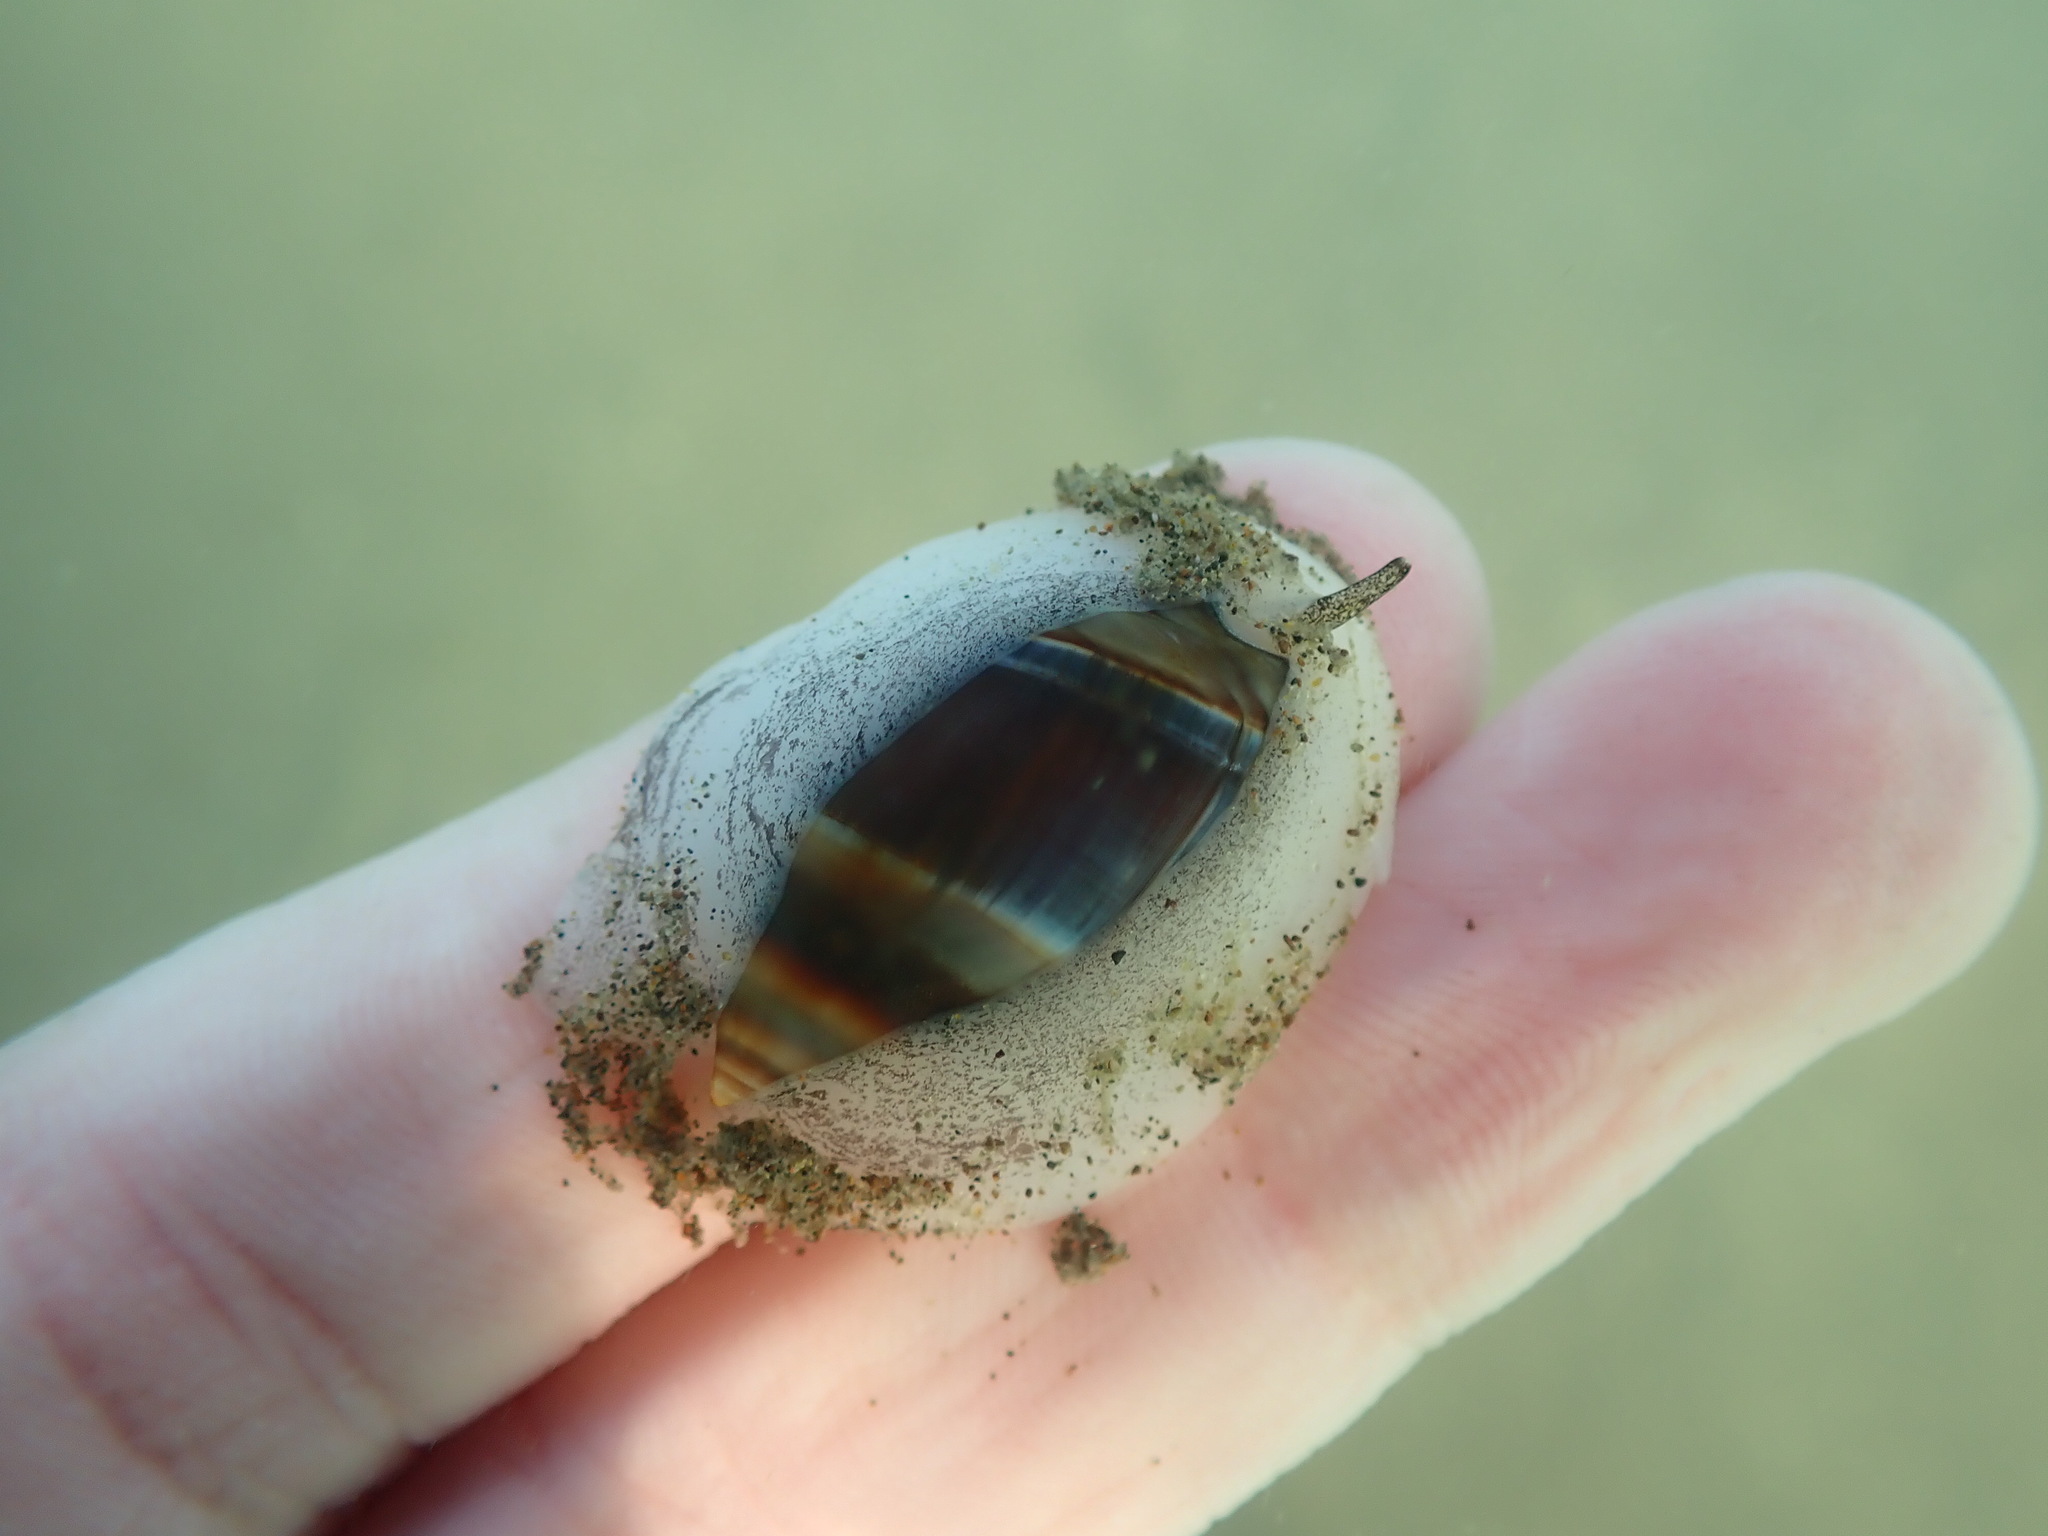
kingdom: Animalia
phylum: Mollusca
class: Gastropoda
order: Neogastropoda
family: Ancillariidae
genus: Amalda
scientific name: Amalda australis
